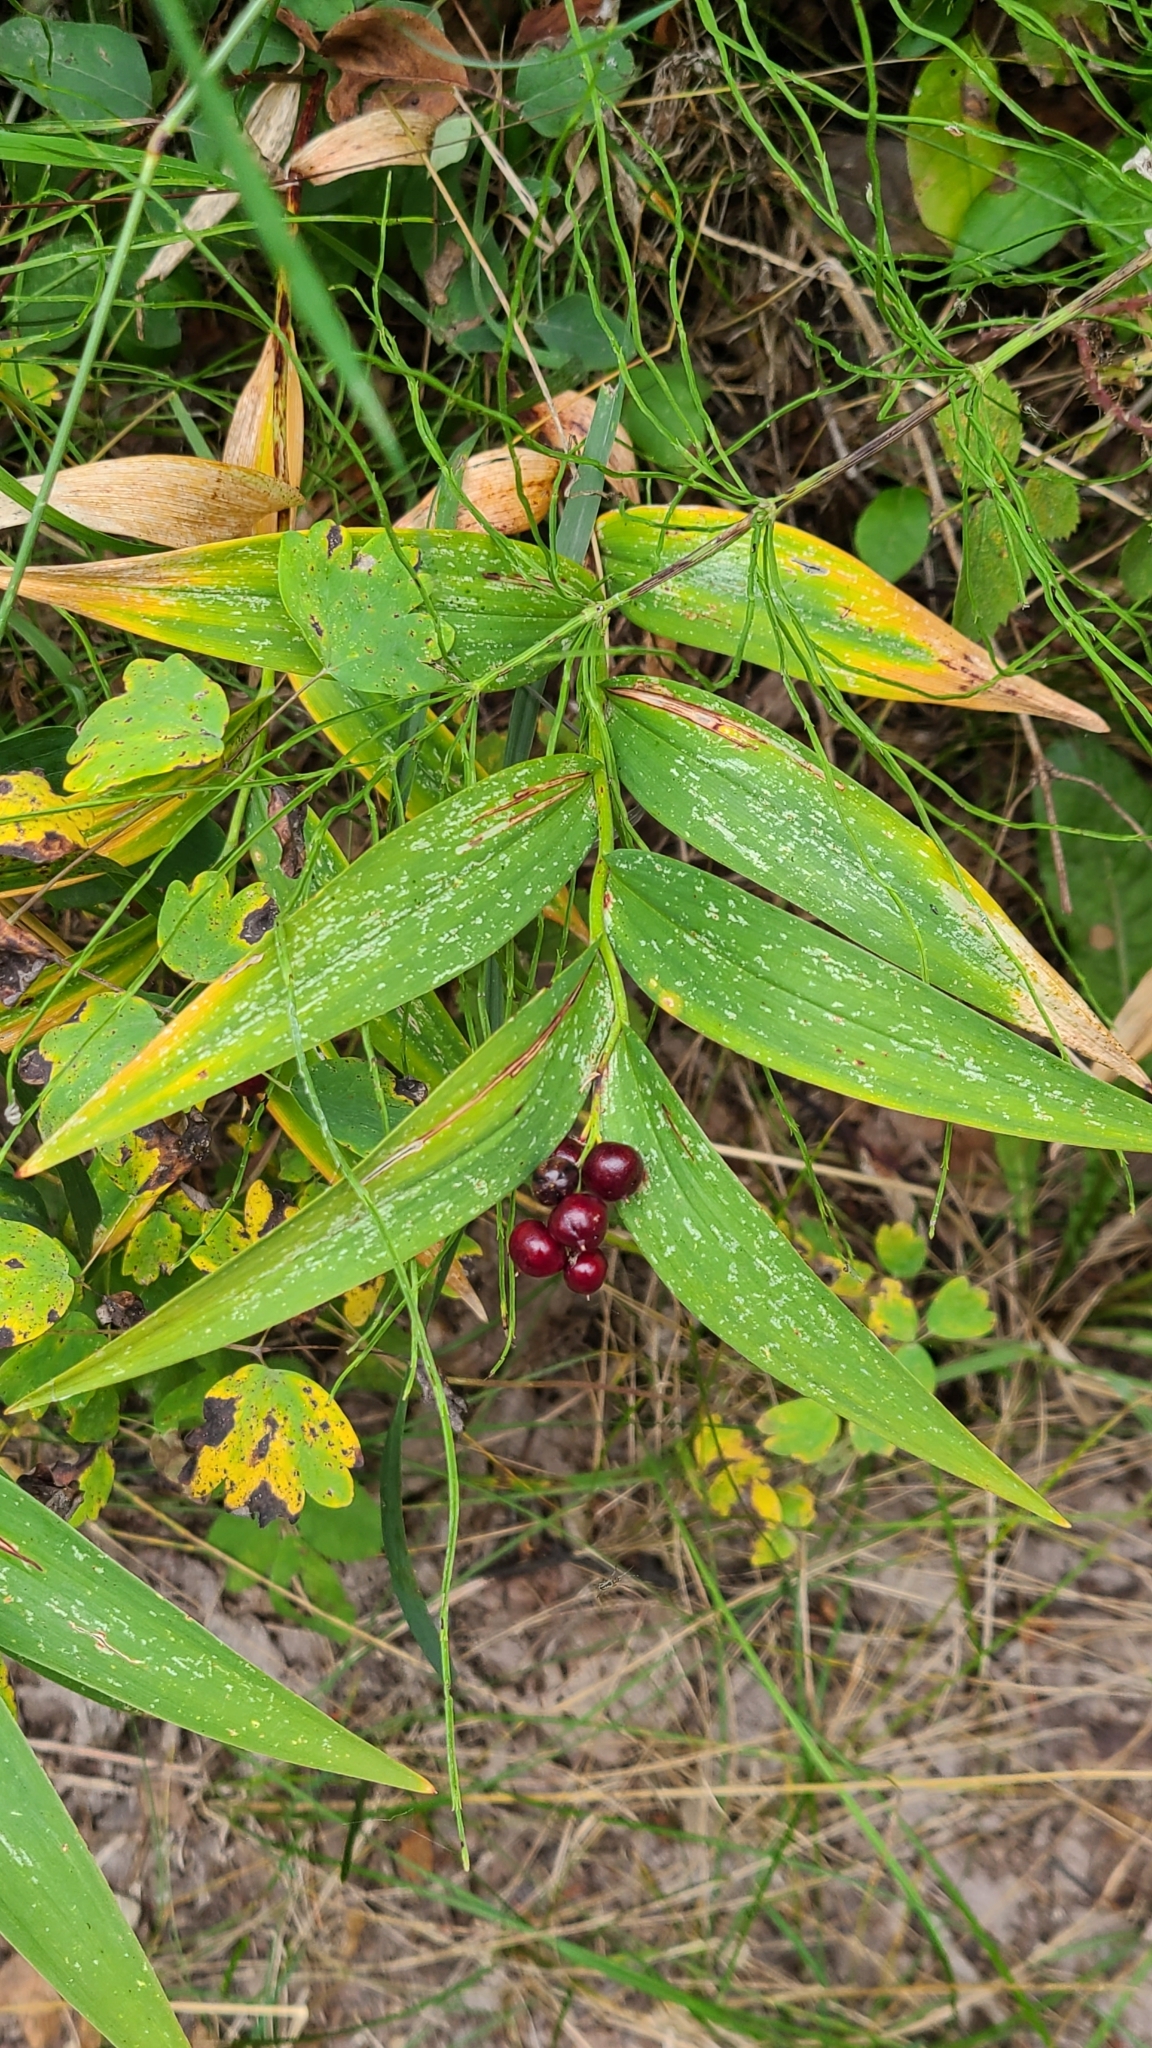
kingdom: Plantae
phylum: Tracheophyta
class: Liliopsida
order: Asparagales
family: Asparagaceae
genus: Maianthemum
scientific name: Maianthemum stellatum
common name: Little false solomon's seal
